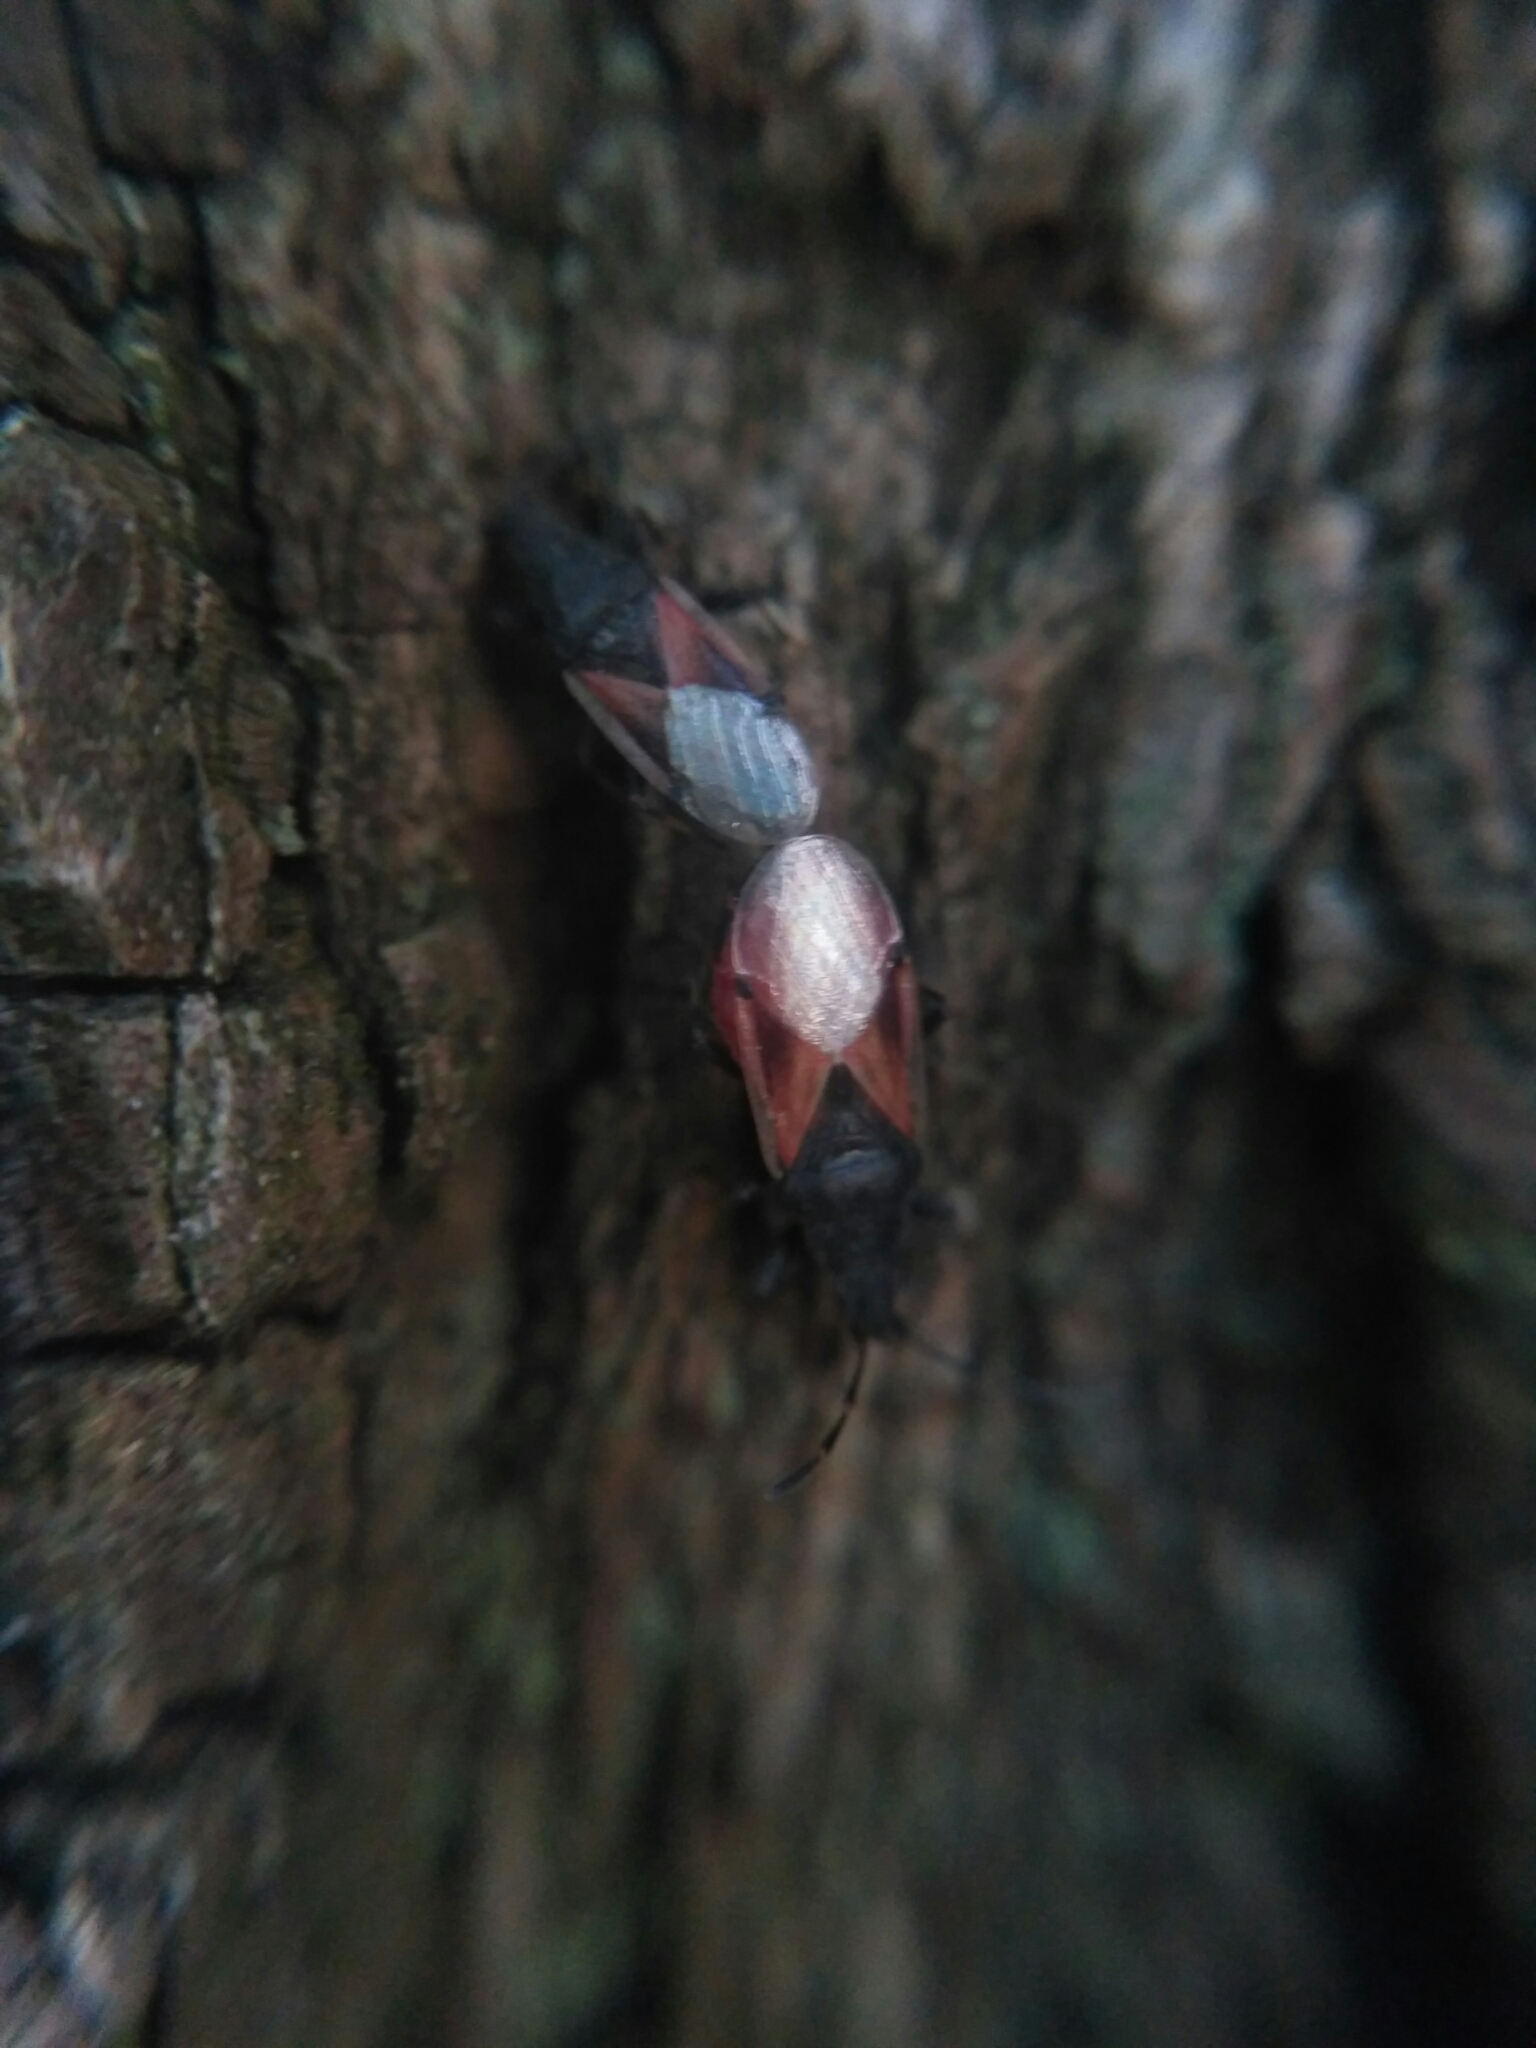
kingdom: Animalia
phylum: Arthropoda
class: Insecta
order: Hemiptera
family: Oxycarenidae
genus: Oxycarenus
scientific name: Oxycarenus lavaterae
